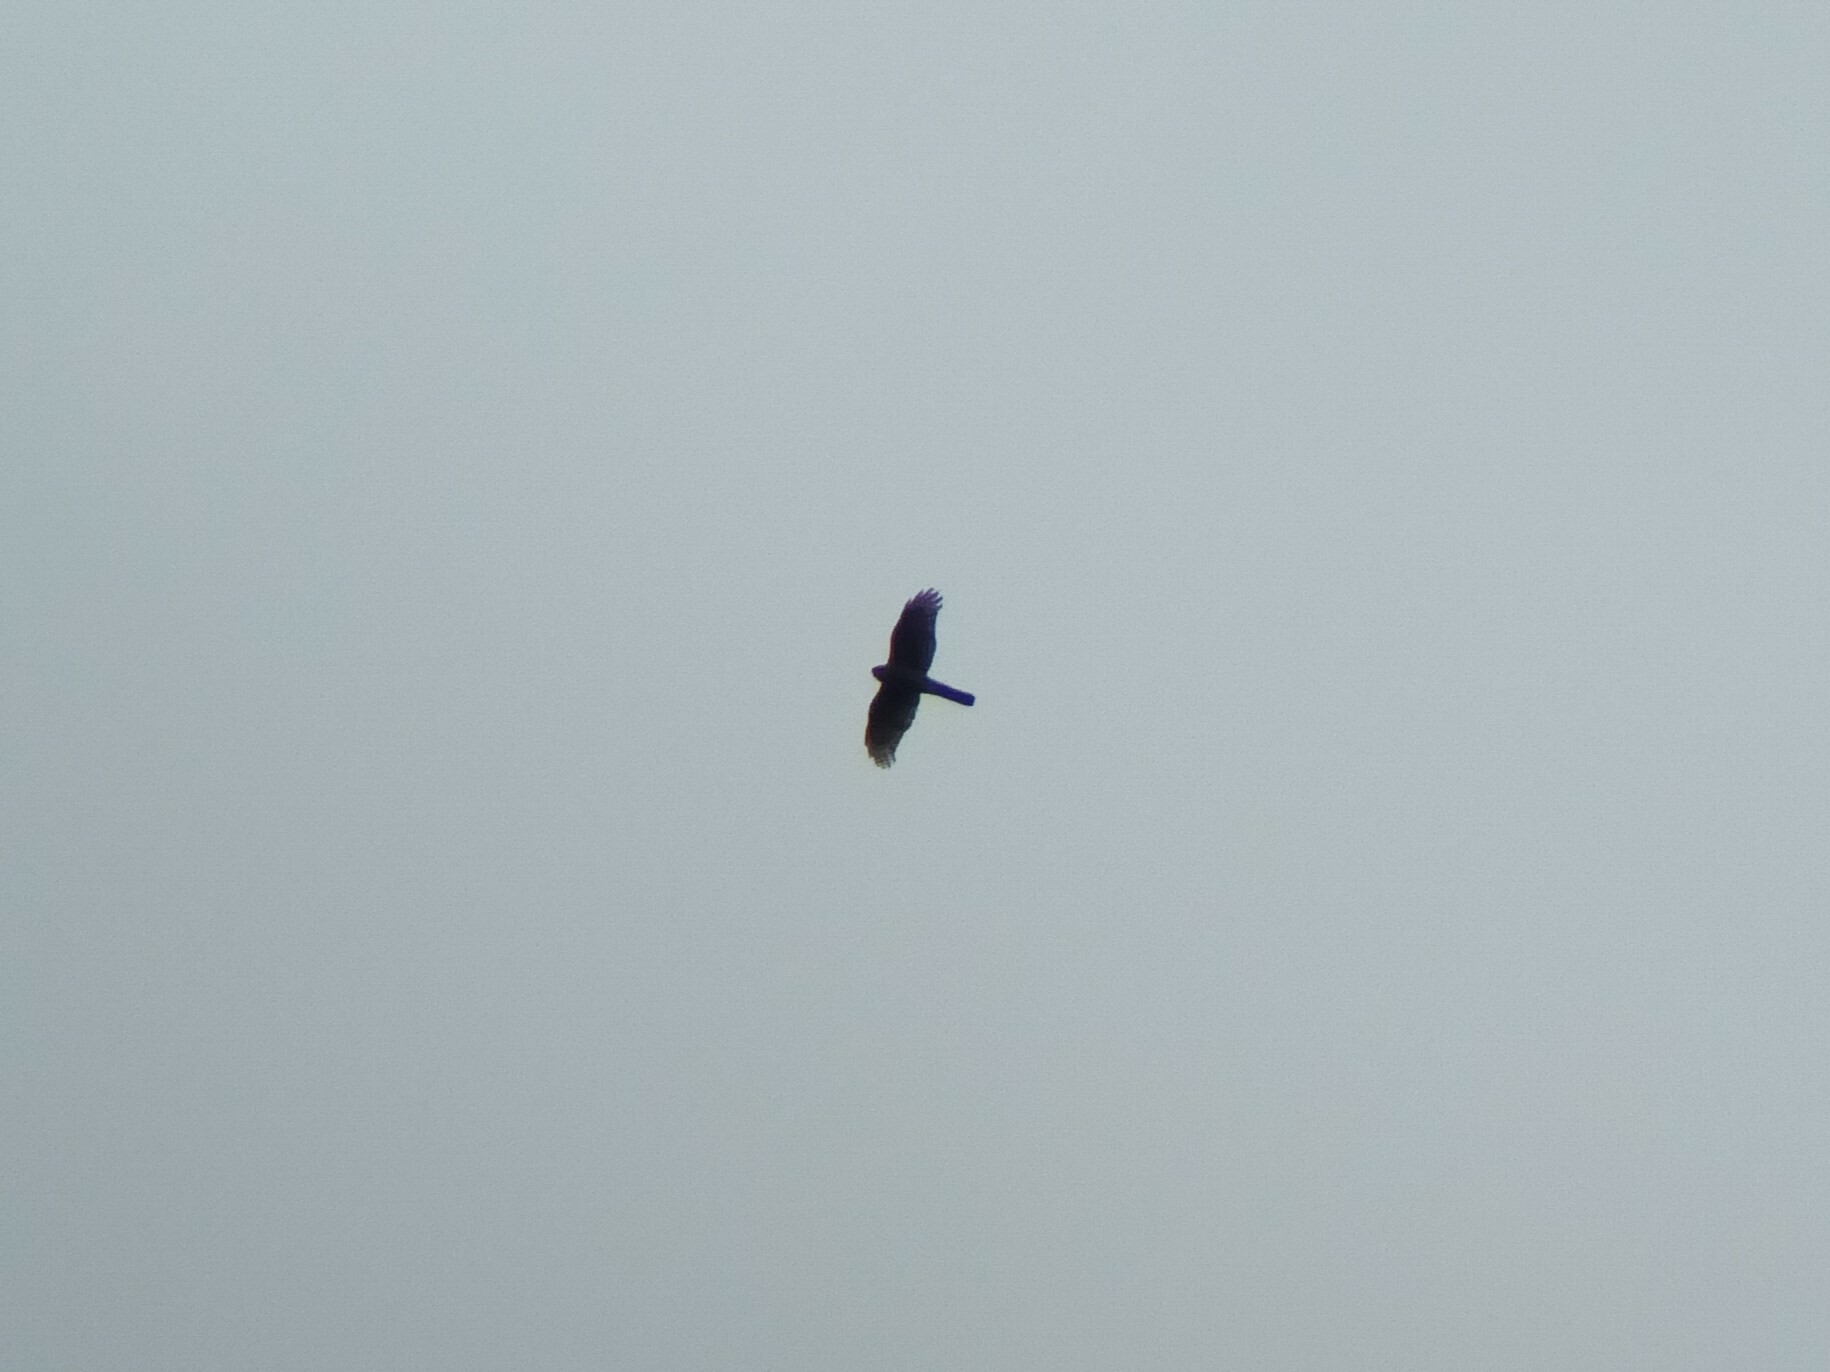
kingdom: Animalia
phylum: Chordata
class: Aves
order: Accipitriformes
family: Accipitridae
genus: Accipiter
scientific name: Accipiter nisus
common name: Eurasian sparrowhawk
